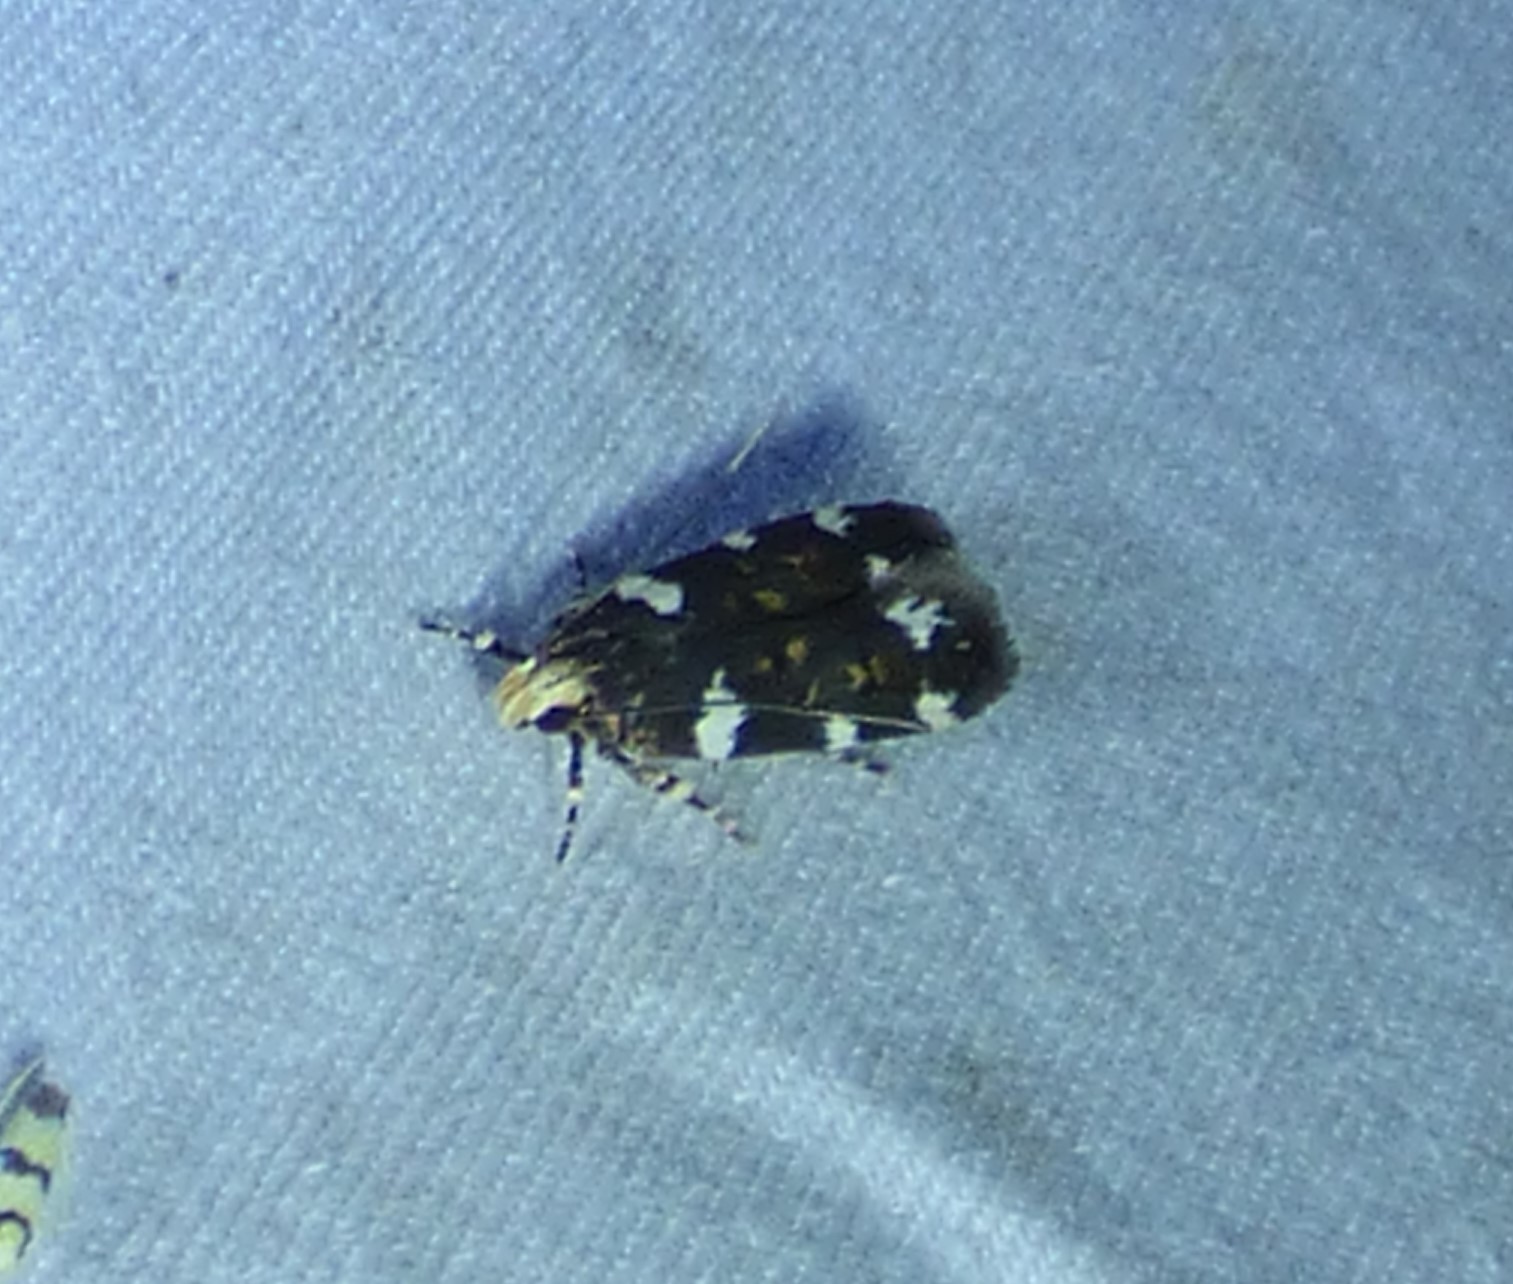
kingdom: Animalia
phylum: Arthropoda
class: Insecta
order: Lepidoptera
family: Gelechiidae
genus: Fascista
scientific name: Fascista cercerisella
